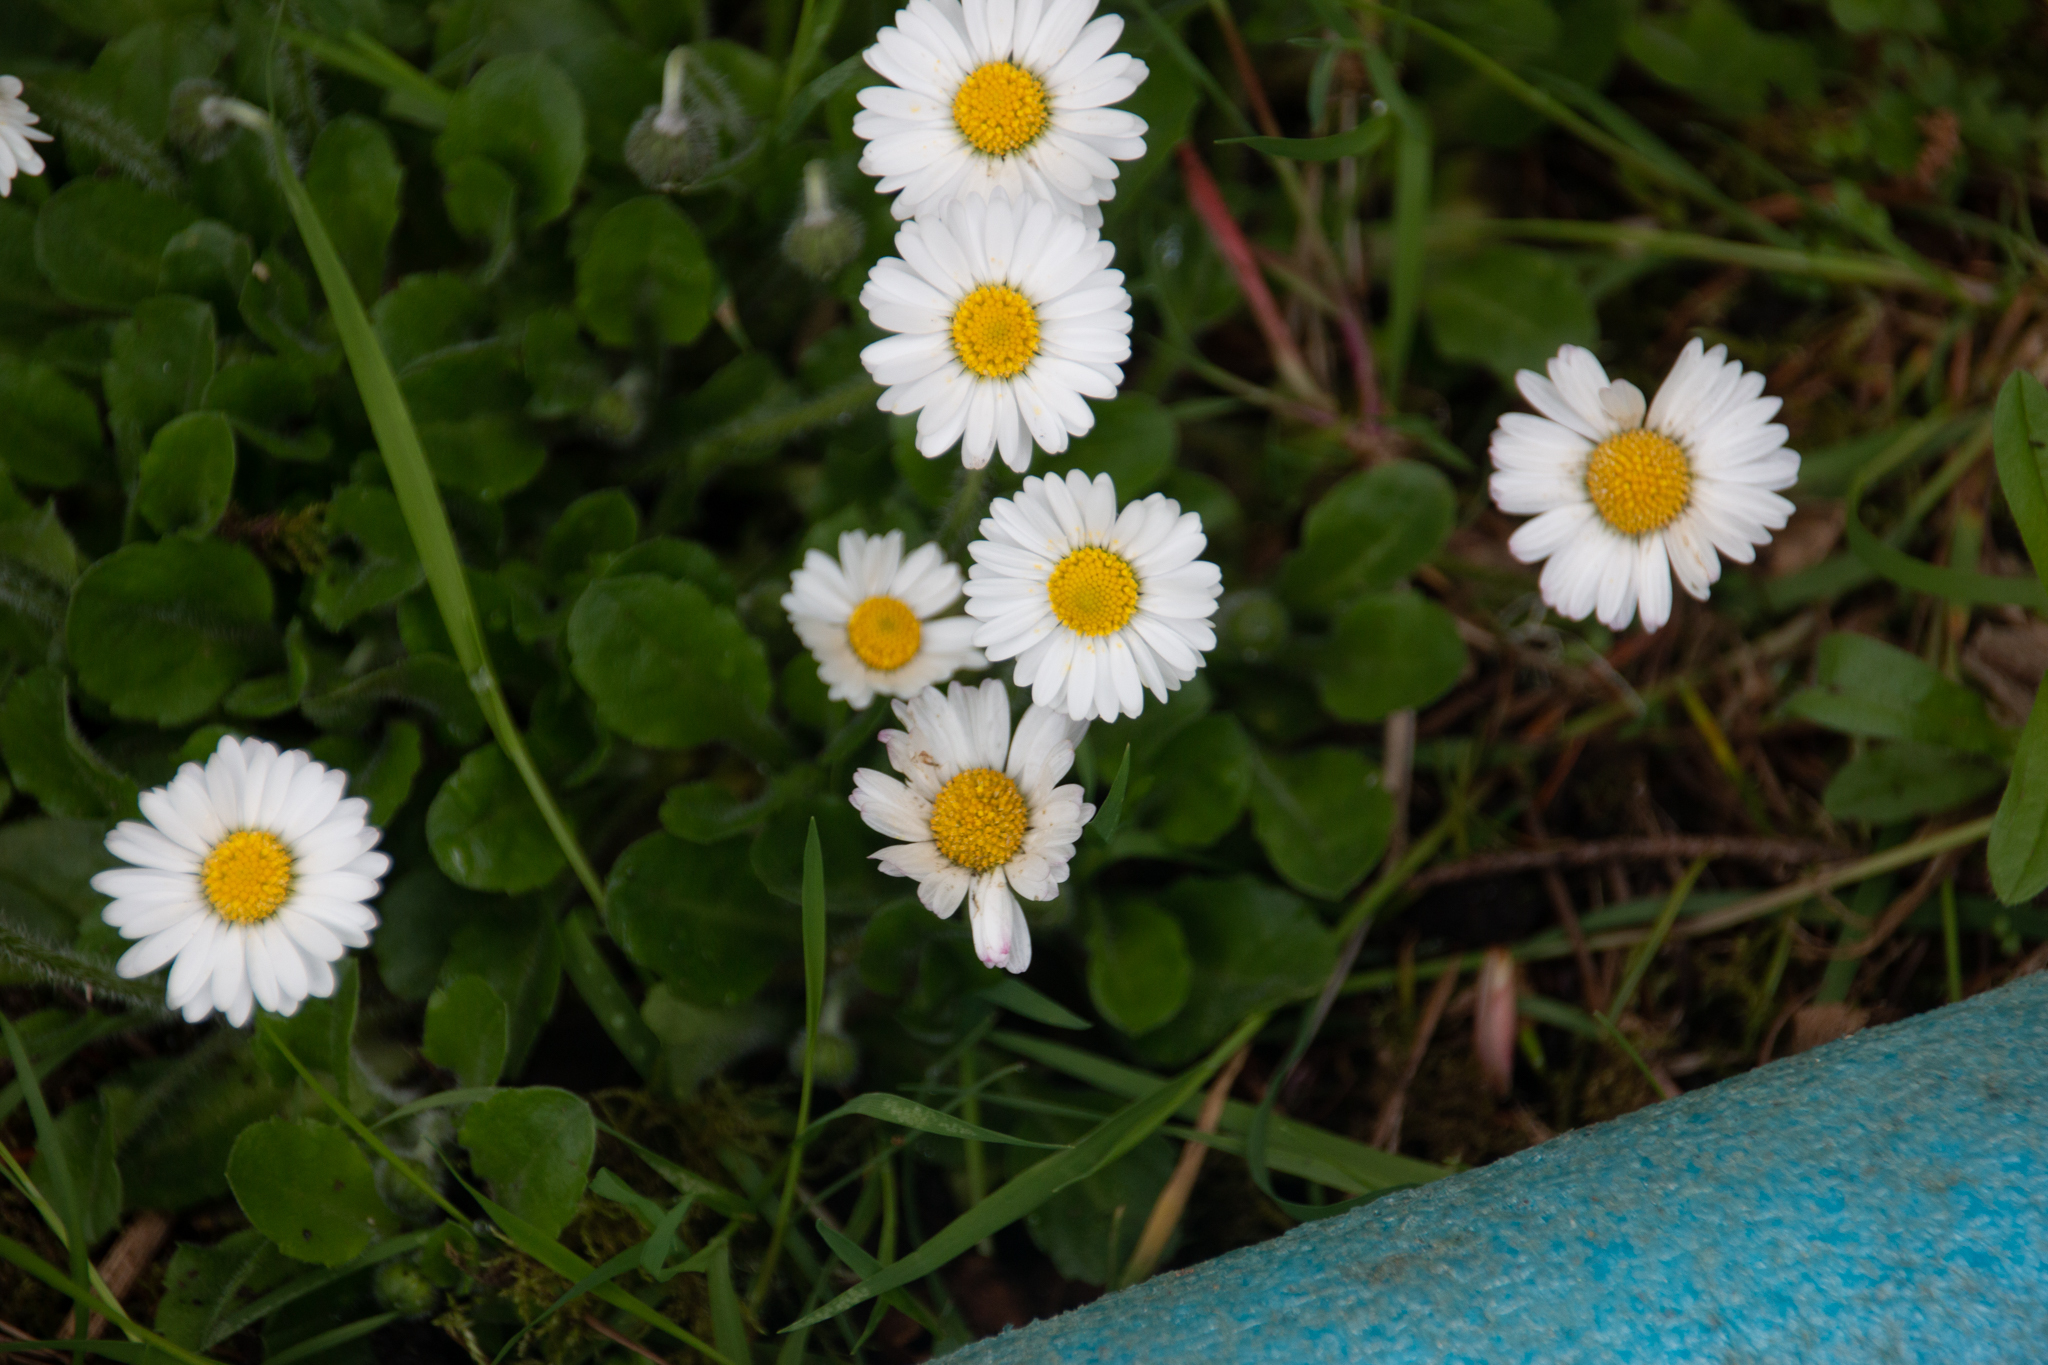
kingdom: Plantae
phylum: Tracheophyta
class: Magnoliopsida
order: Asterales
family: Asteraceae
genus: Bellis
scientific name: Bellis perennis
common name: Lawndaisy
